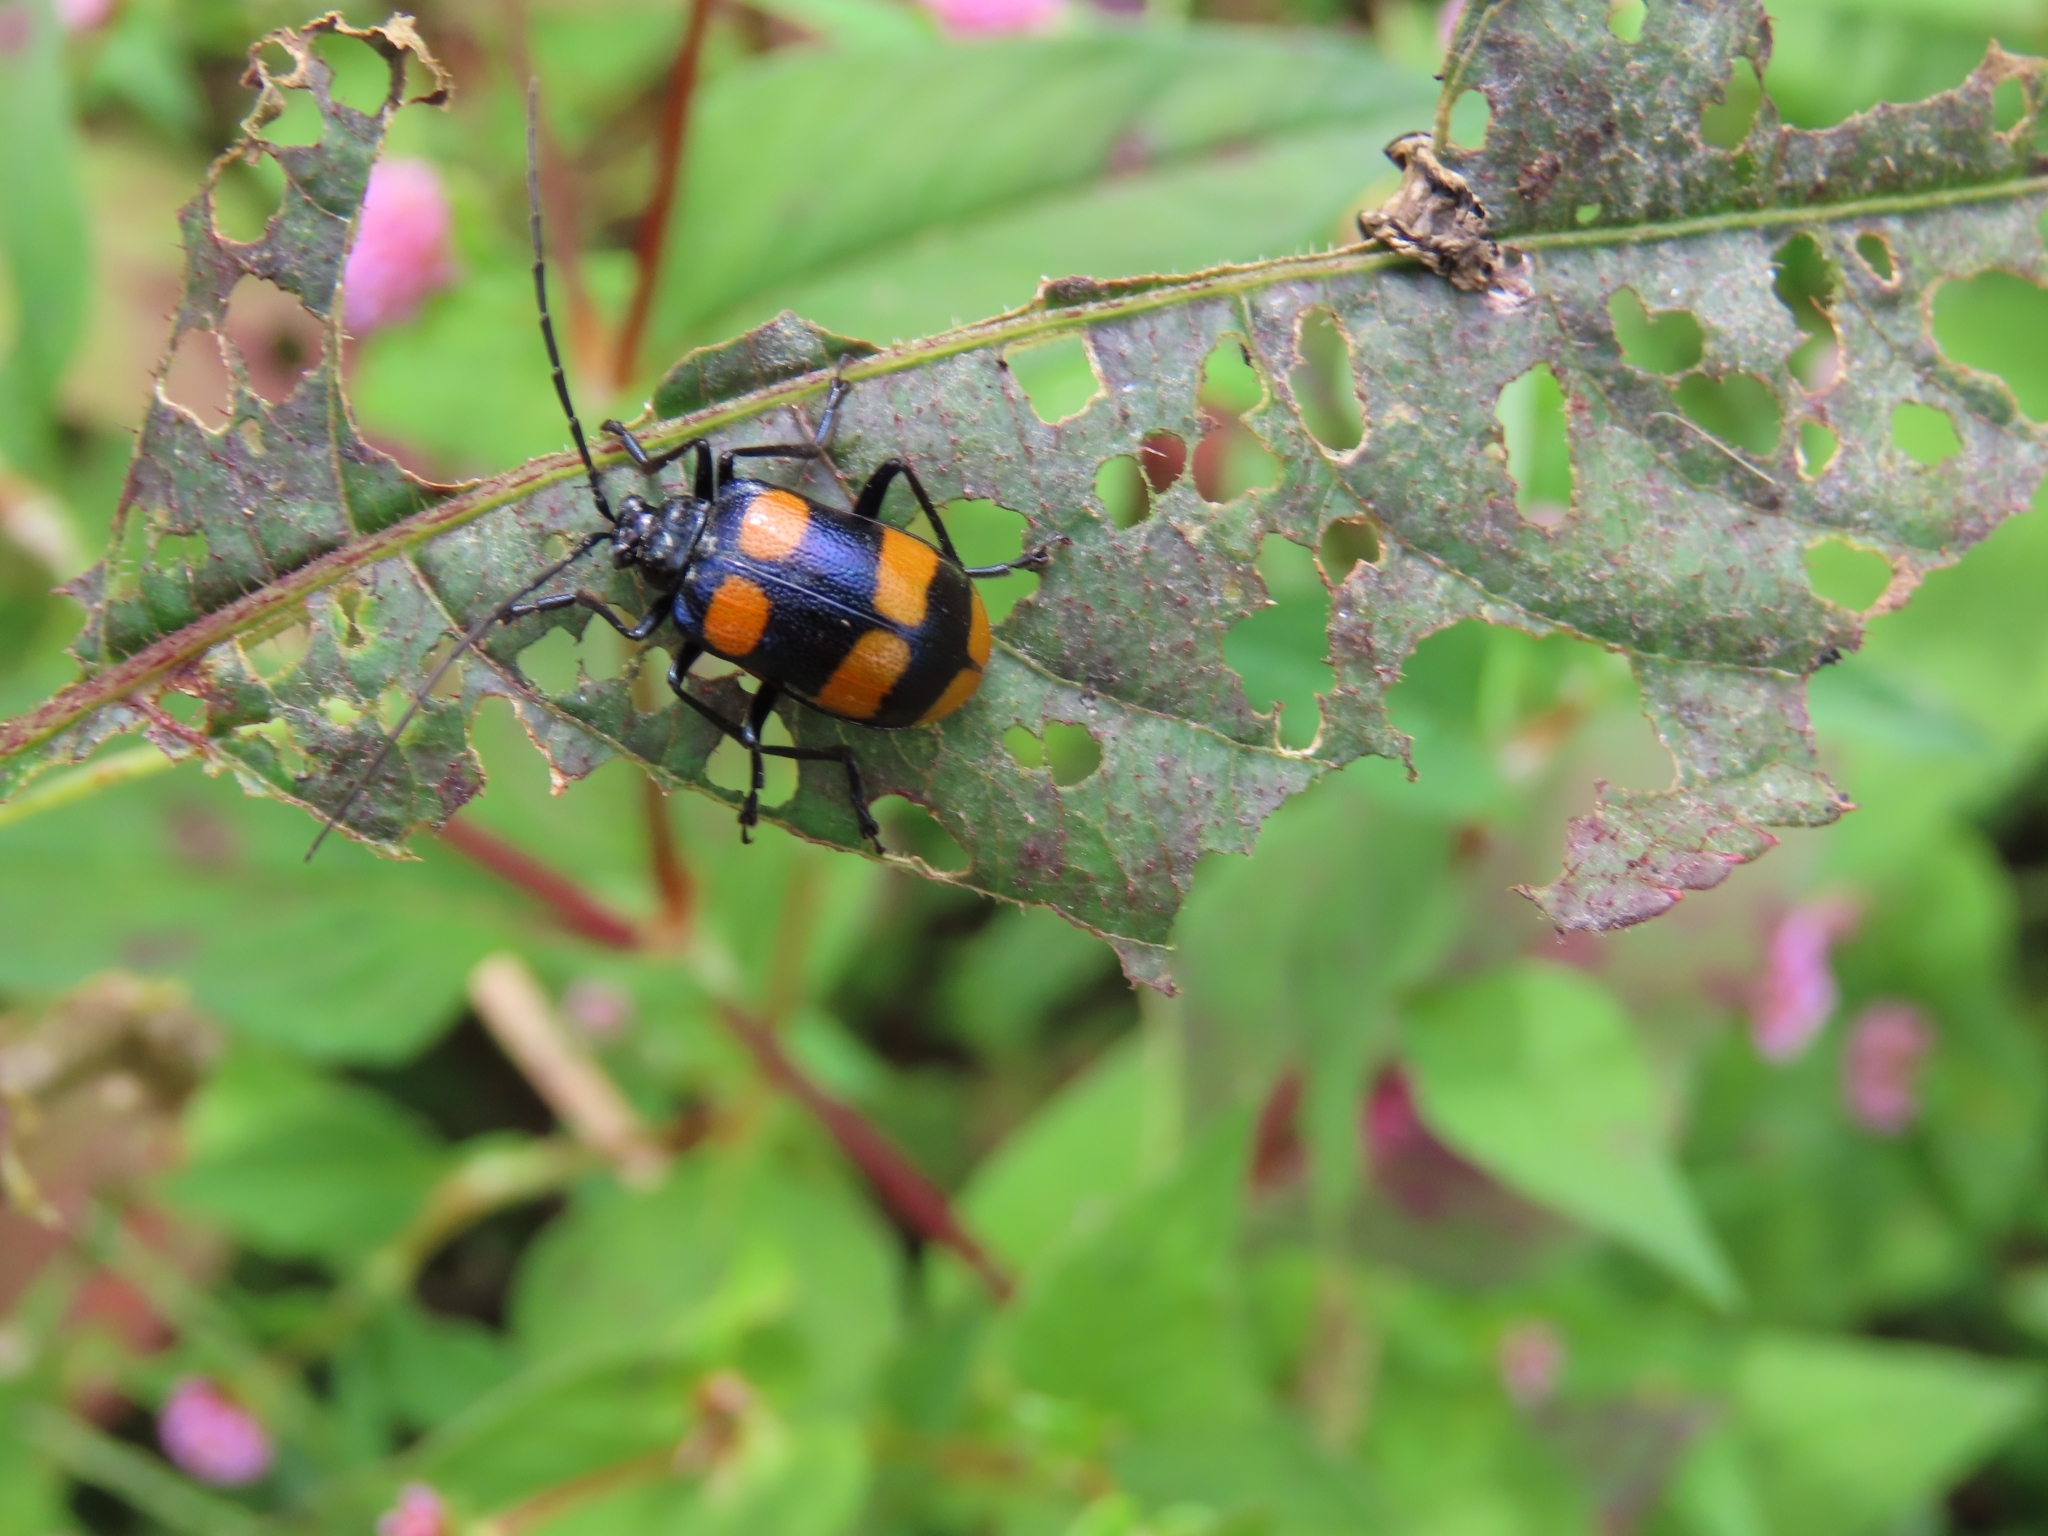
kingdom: Animalia
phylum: Arthropoda
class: Insecta
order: Coleoptera
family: Chrysomelidae
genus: Meristata
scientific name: Meristata
